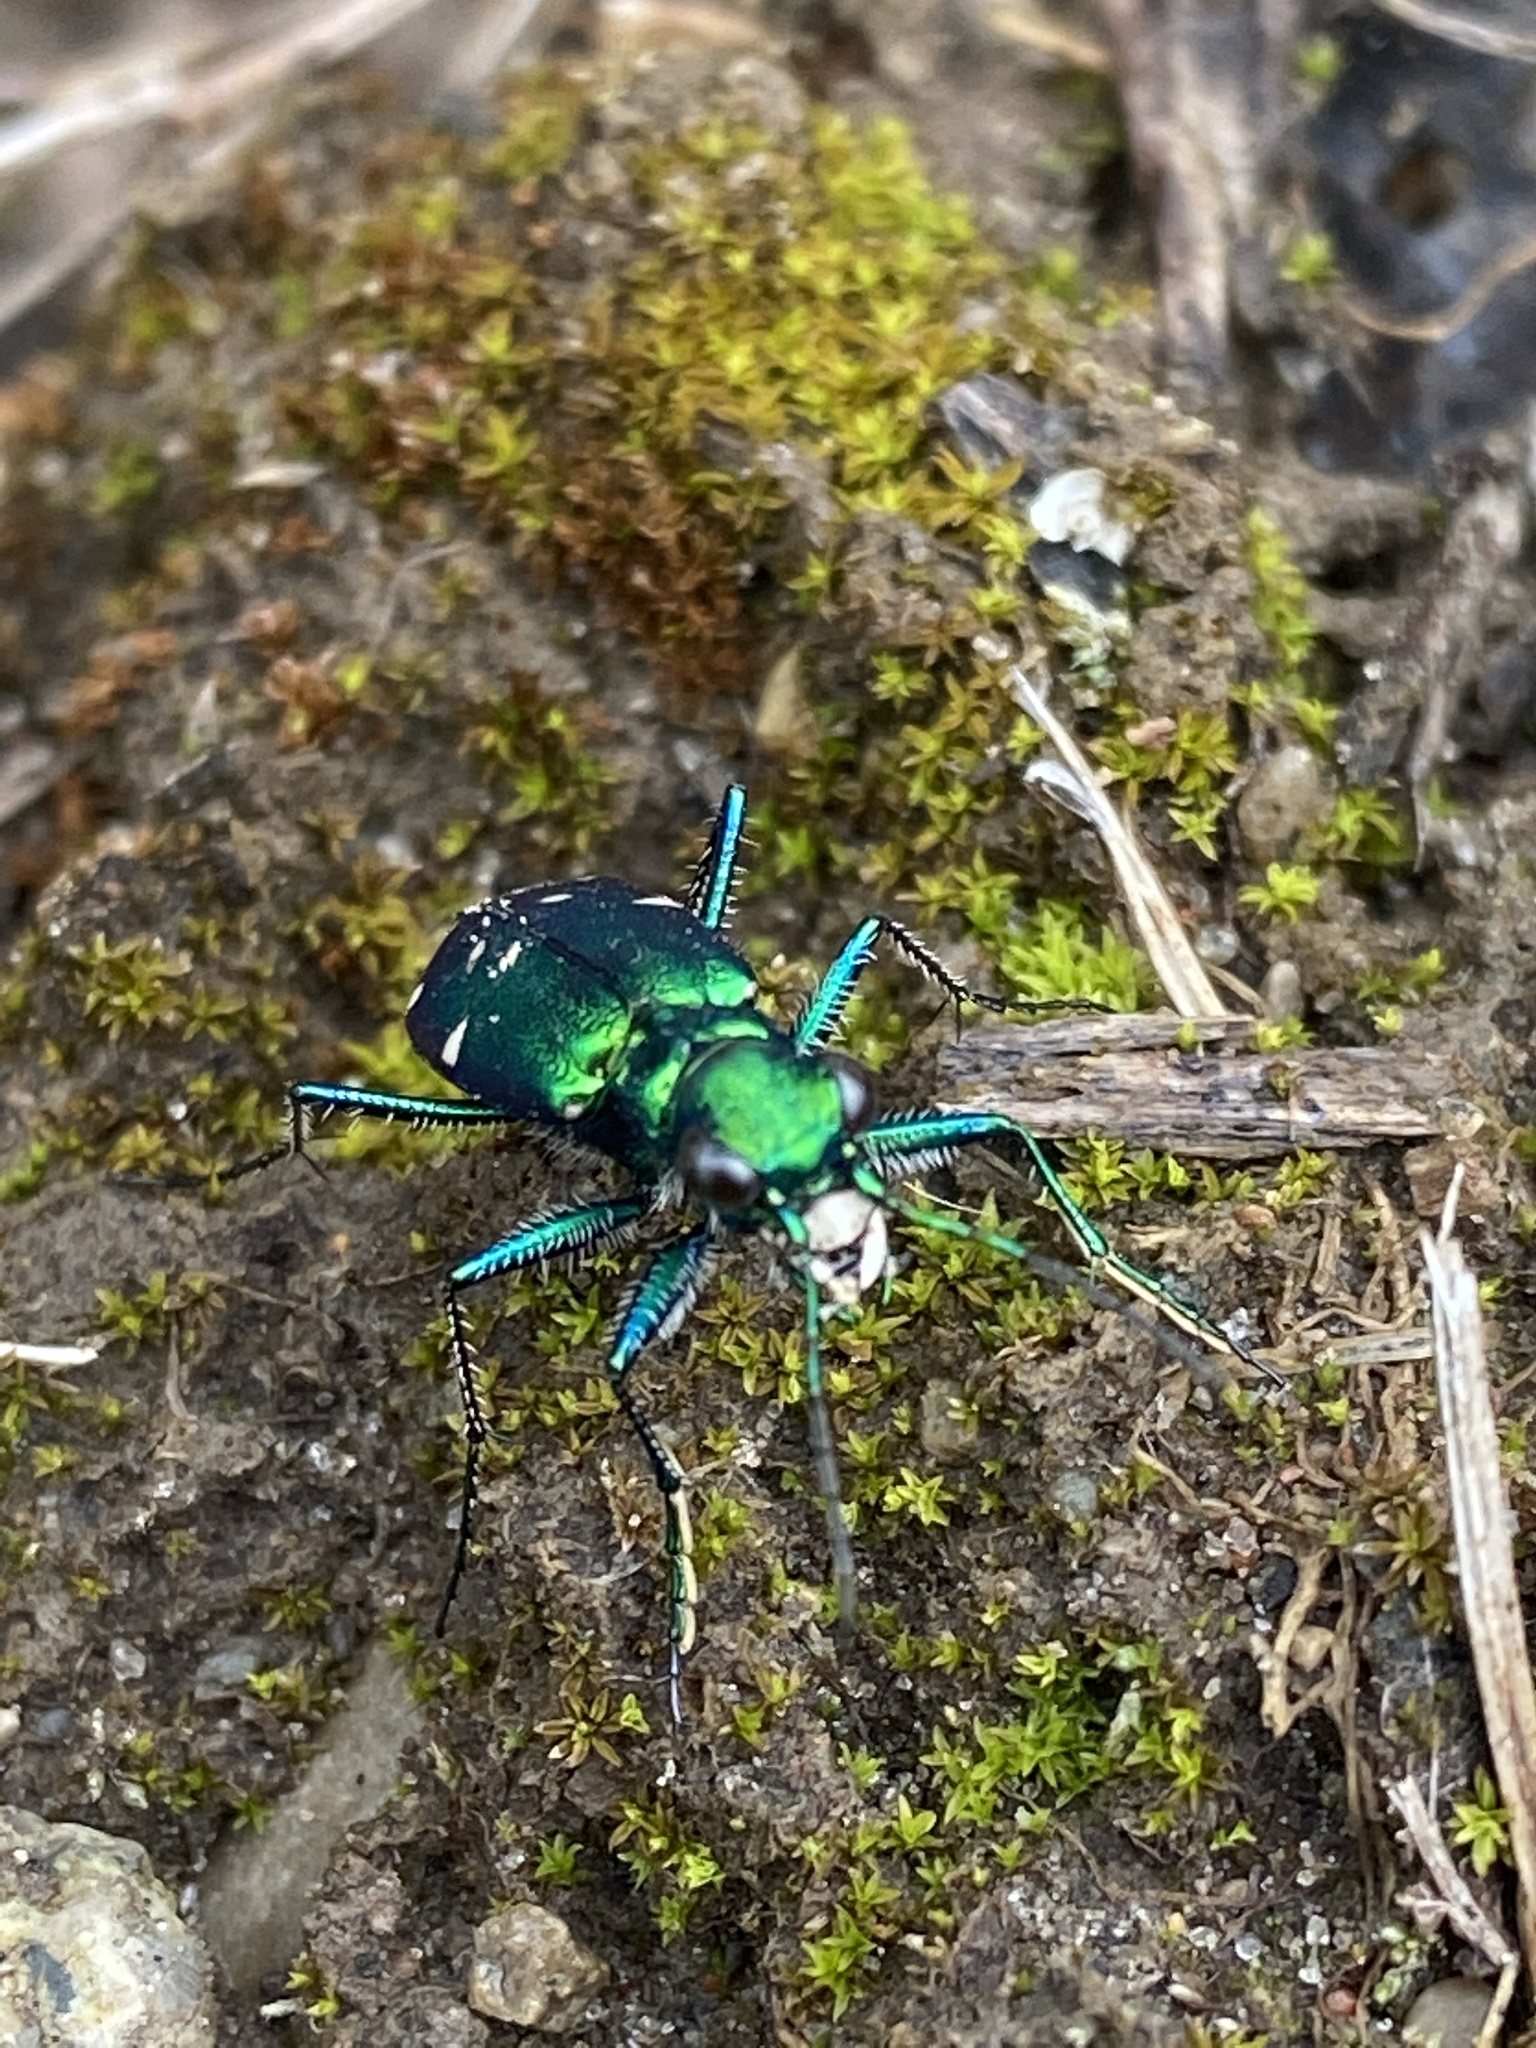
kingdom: Animalia
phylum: Arthropoda
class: Insecta
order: Coleoptera
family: Carabidae
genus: Cicindela
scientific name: Cicindela sexguttata
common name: Six-spotted tiger beetle
